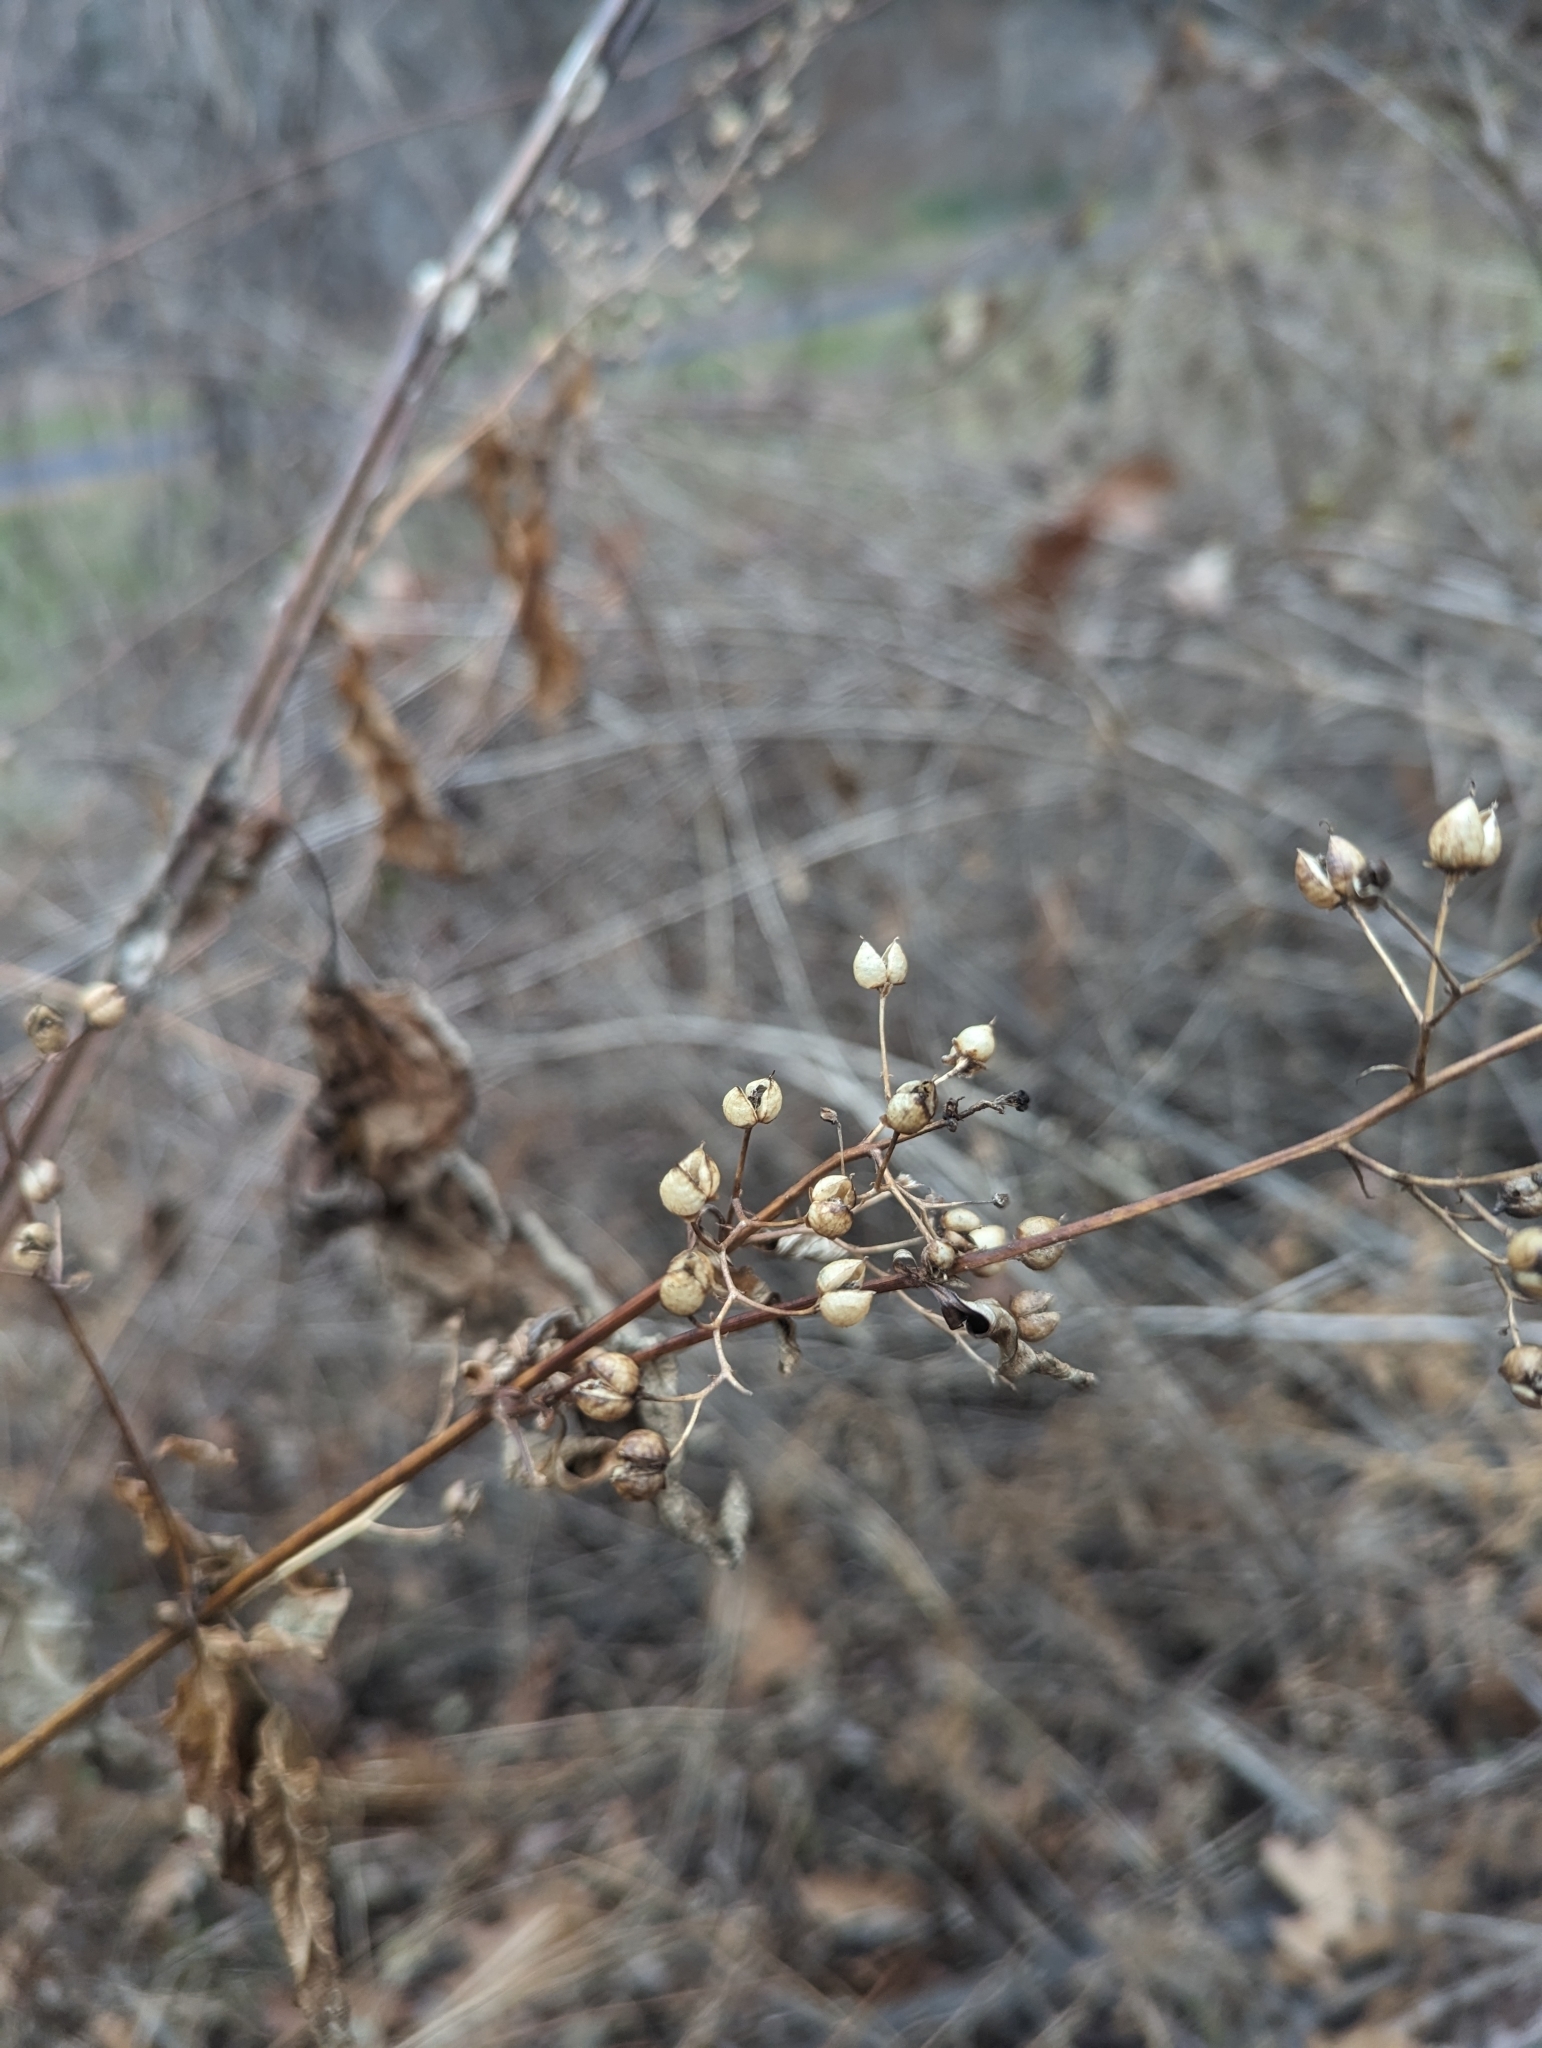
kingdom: Plantae
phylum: Tracheophyta
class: Magnoliopsida
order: Lamiales
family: Scrophulariaceae
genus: Scrophularia
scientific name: Scrophularia marilandica
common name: Eastern figwort
